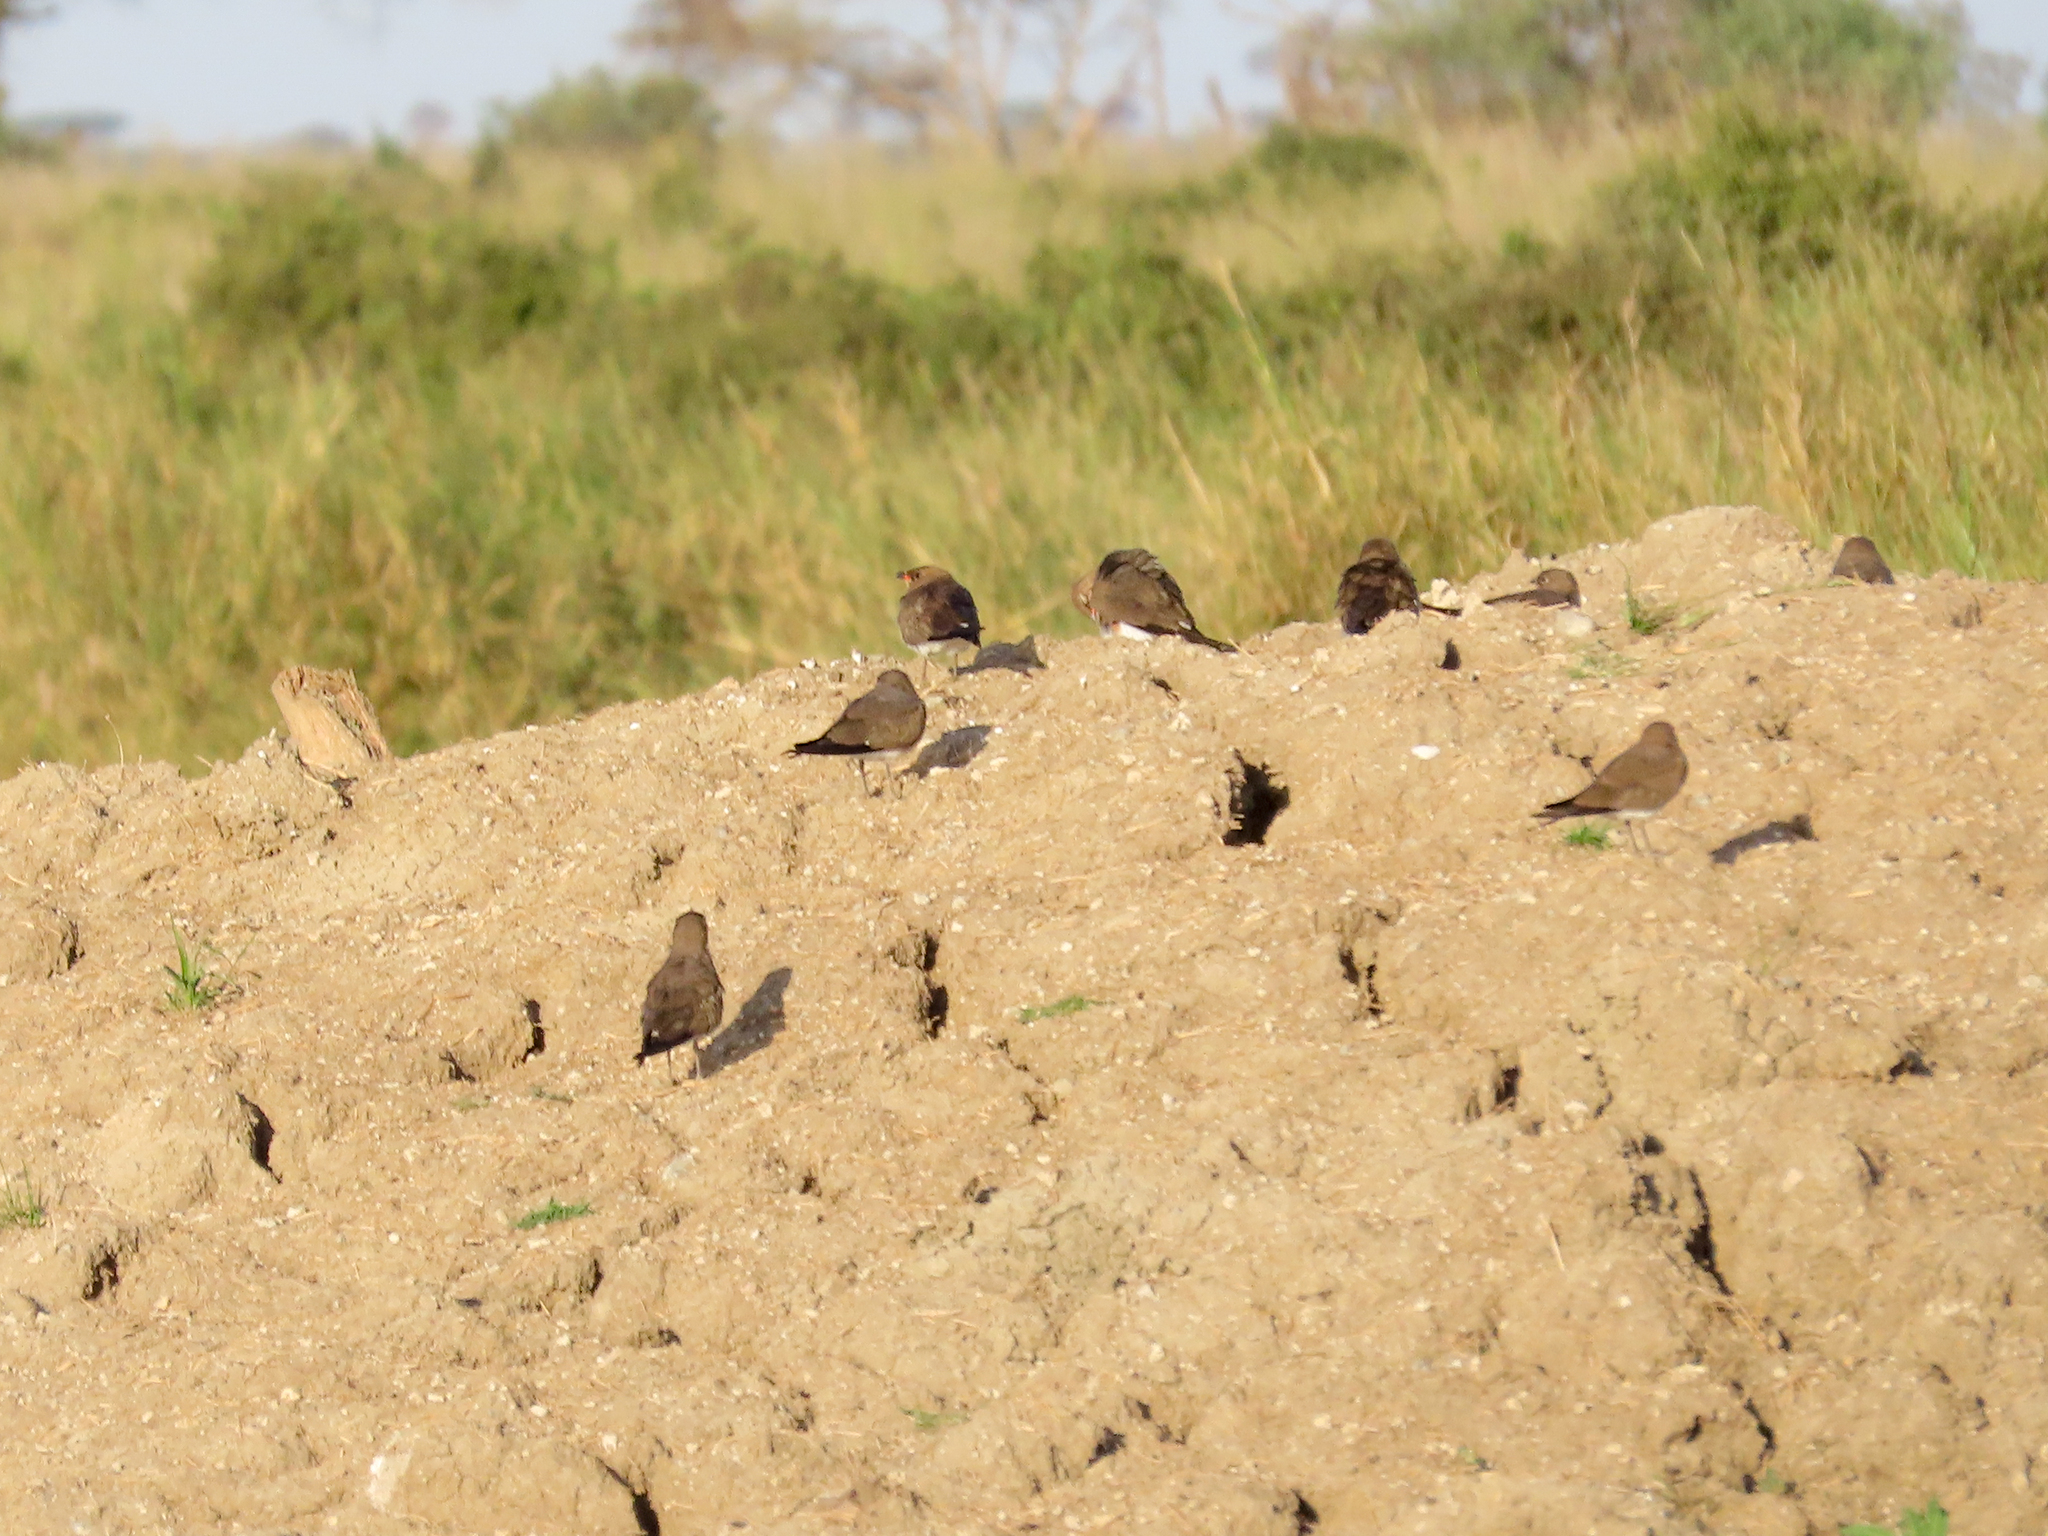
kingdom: Animalia
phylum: Chordata
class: Aves
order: Charadriiformes
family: Glareolidae
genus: Glareola
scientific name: Glareola pratincola
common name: Collared pratincole
